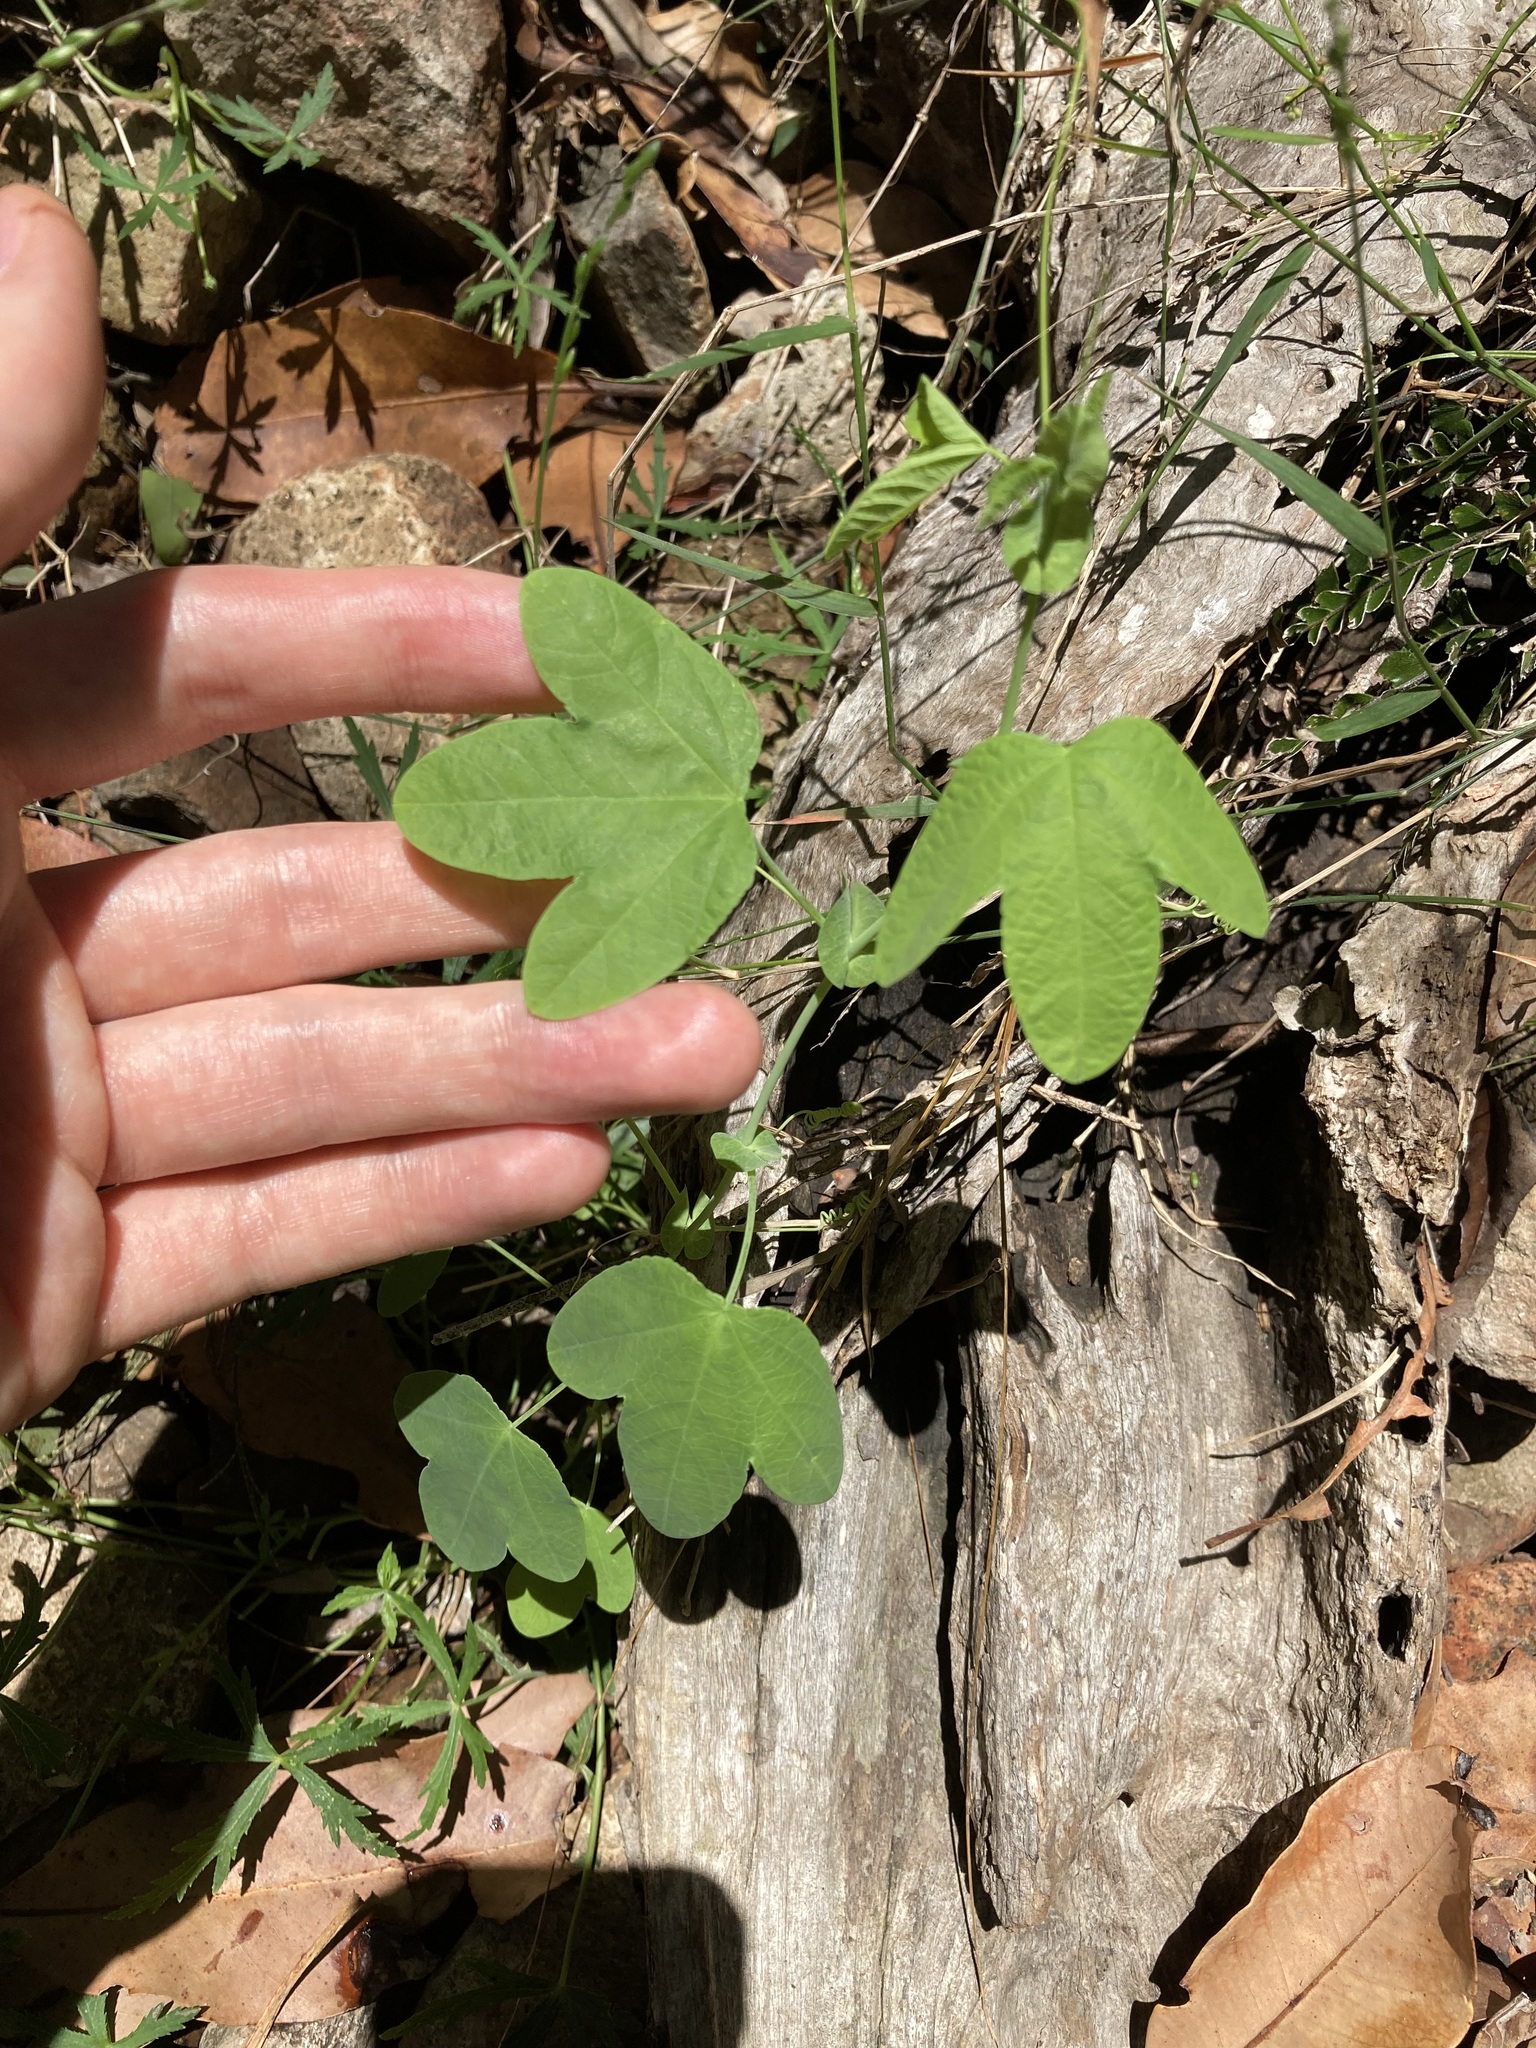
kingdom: Plantae
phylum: Tracheophyta
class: Magnoliopsida
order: Malpighiales
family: Passifloraceae
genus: Passiflora
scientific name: Passiflora subpeltata
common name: White passionflower
